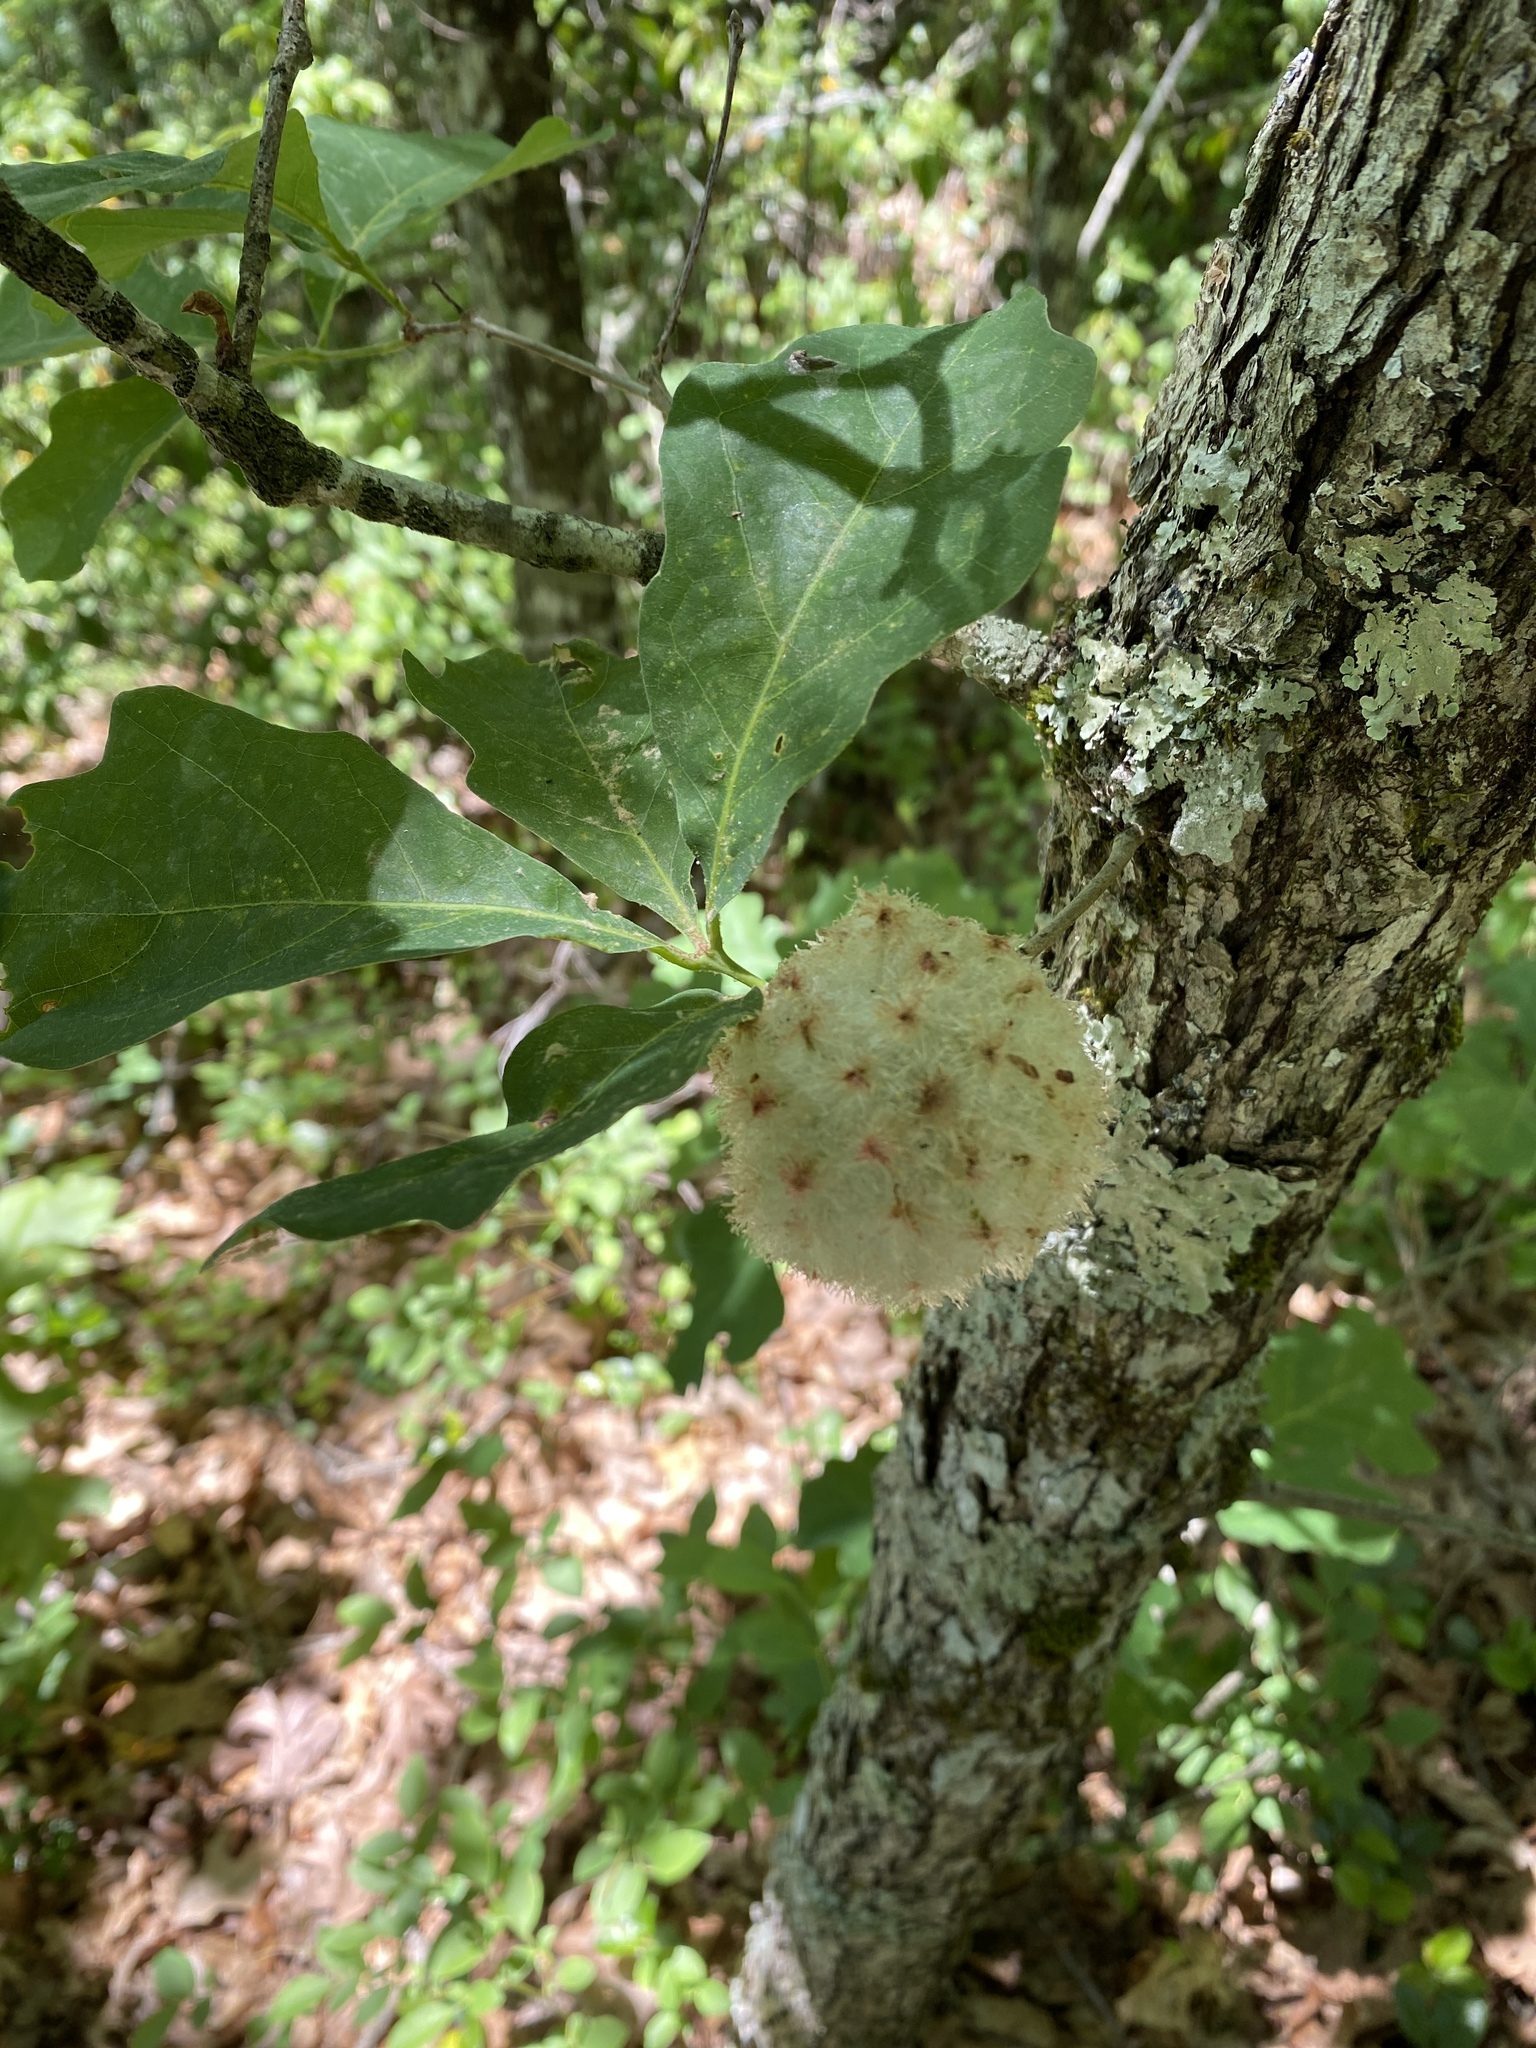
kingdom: Animalia
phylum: Arthropoda
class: Insecta
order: Hymenoptera
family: Cynipidae
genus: Callirhytis
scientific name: Callirhytis
